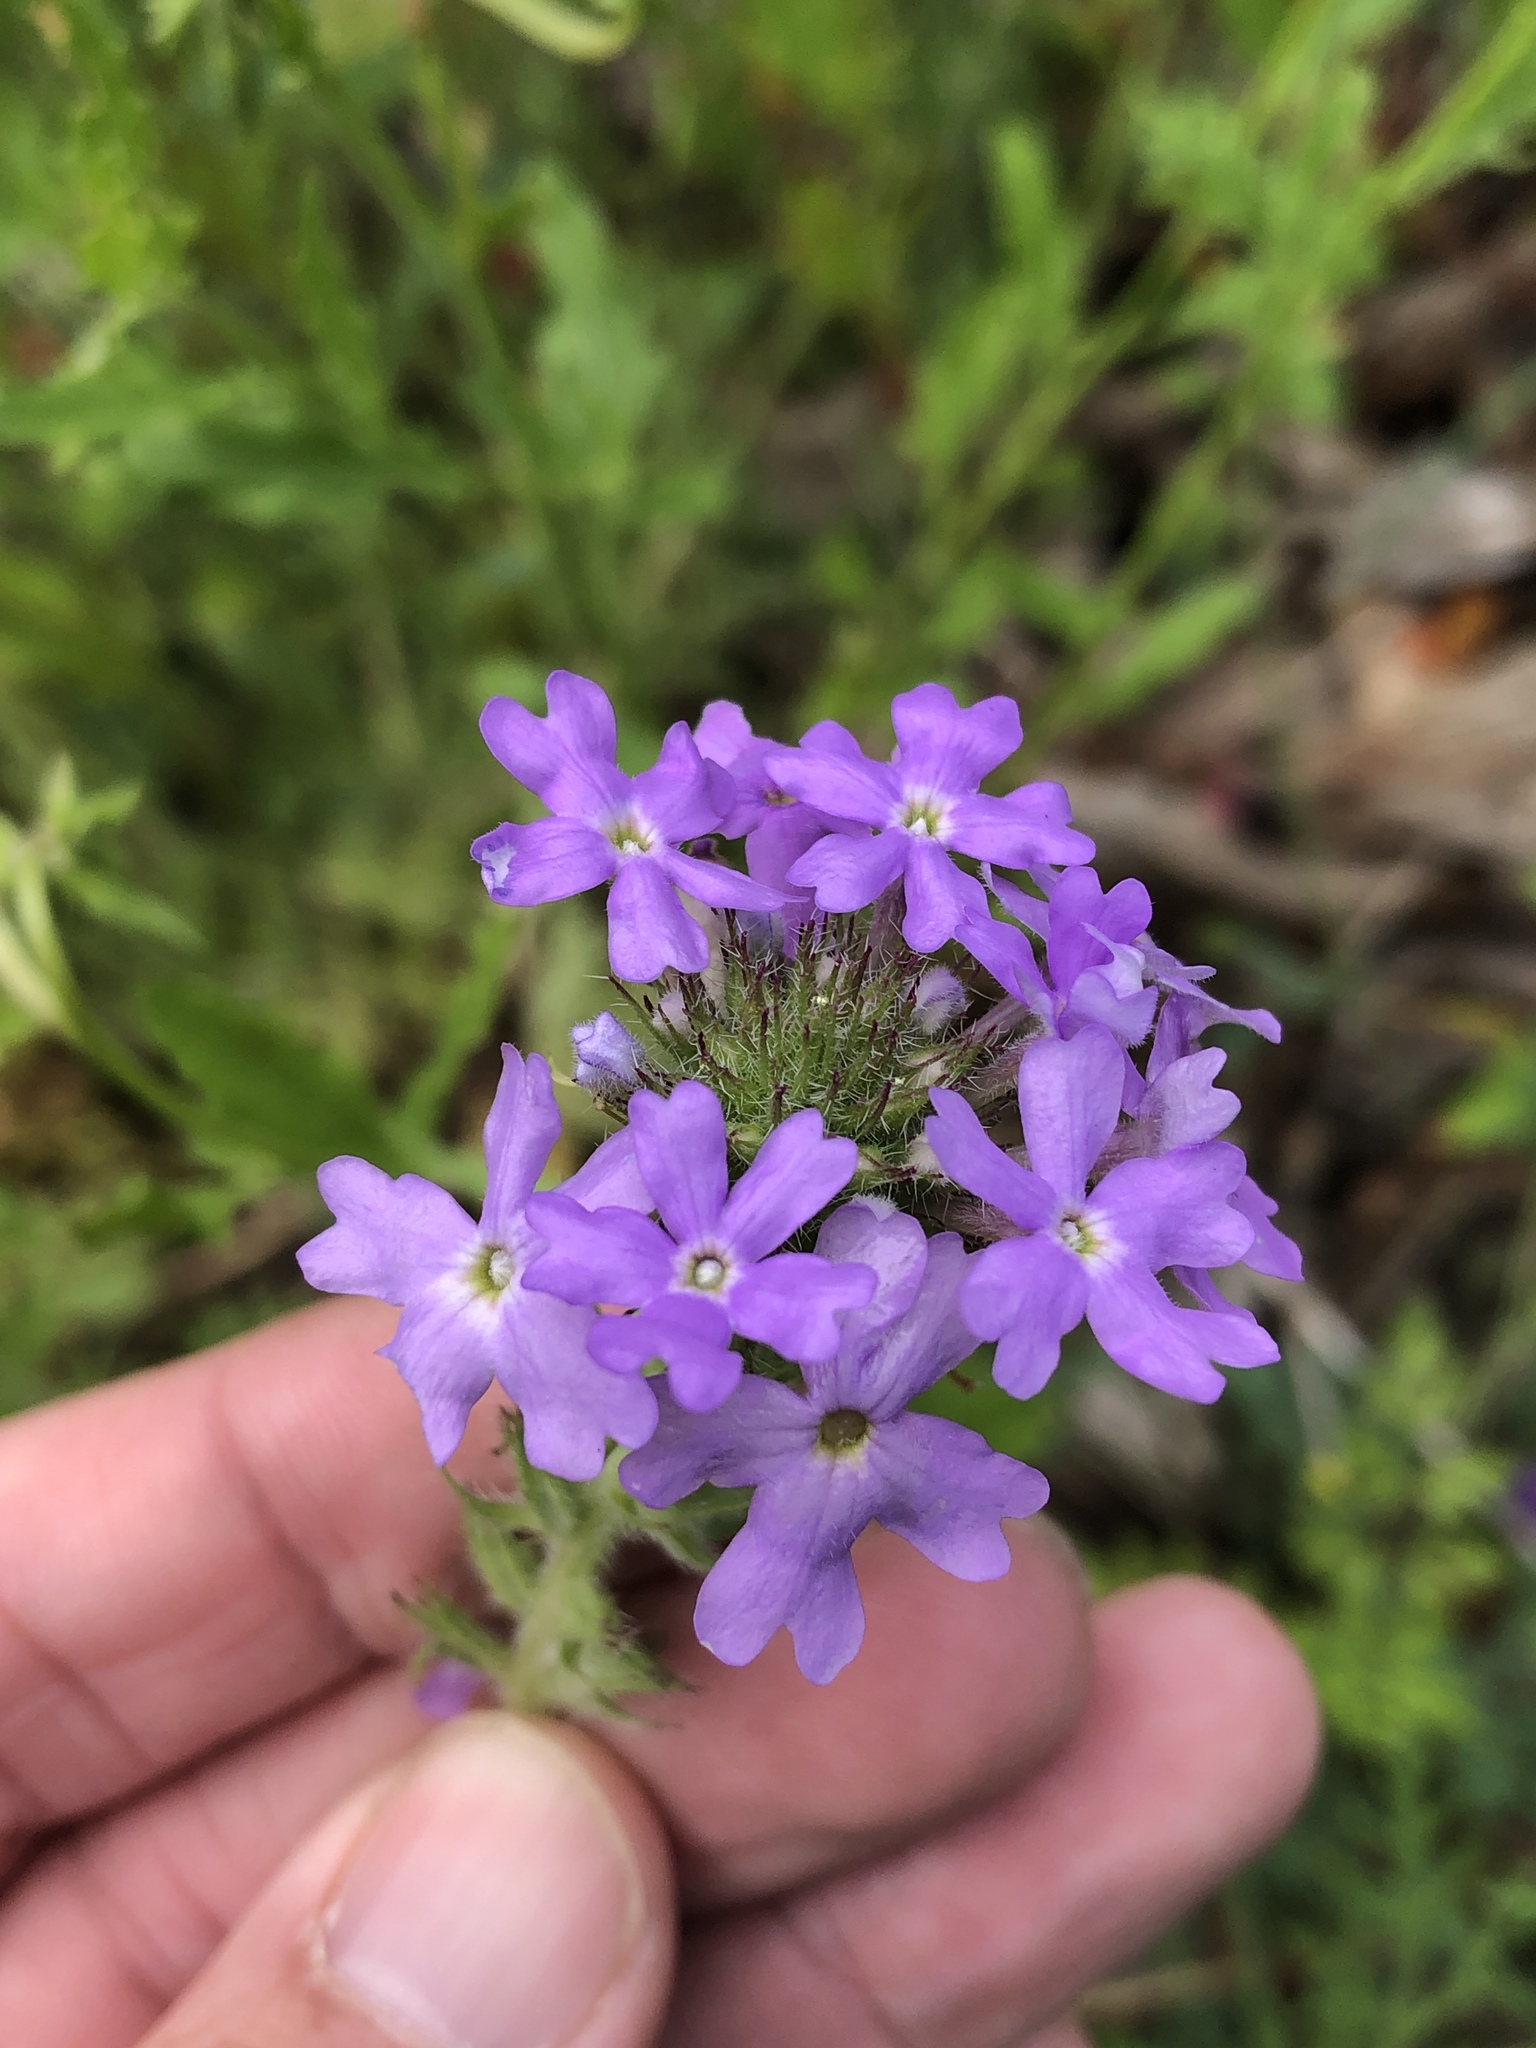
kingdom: Plantae
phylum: Tracheophyta
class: Magnoliopsida
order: Lamiales
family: Verbenaceae
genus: Verbena
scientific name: Verbena bipinnatifida
